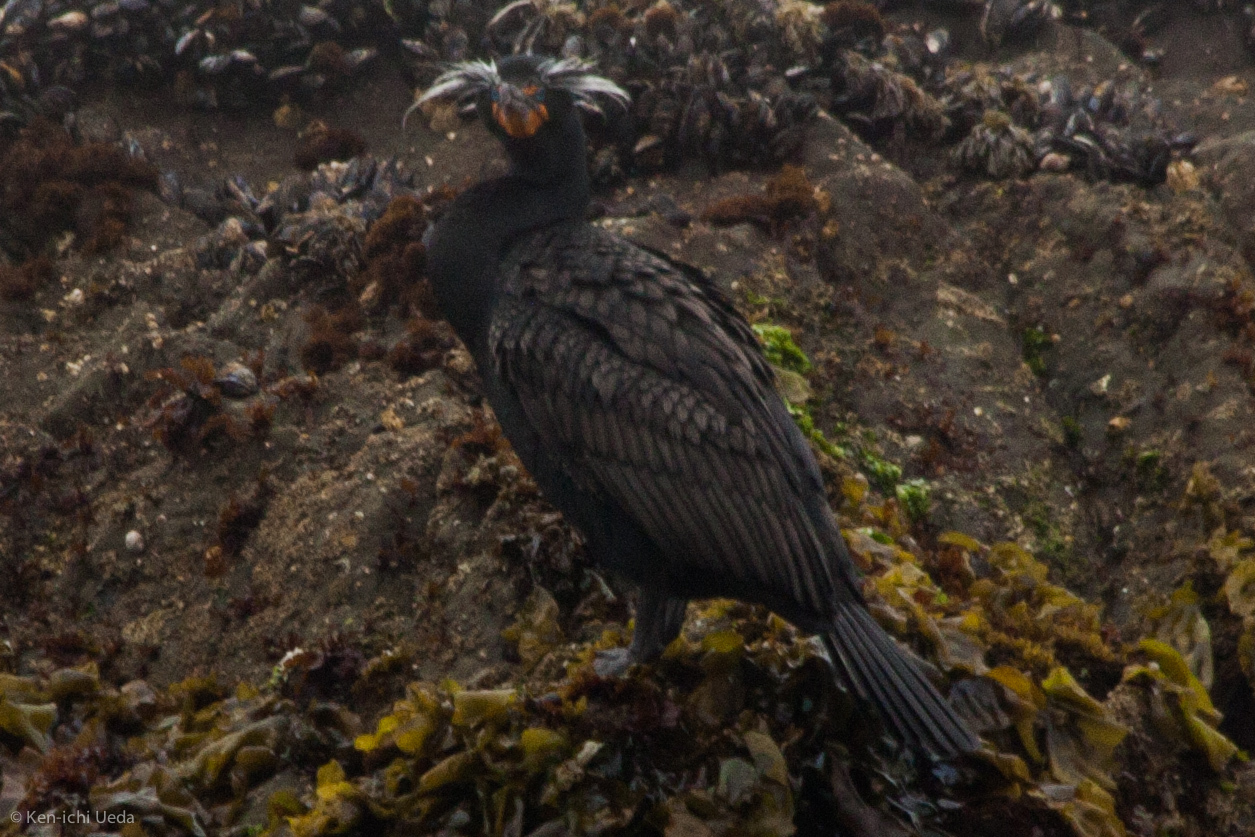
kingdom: Animalia
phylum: Chordata
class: Aves
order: Suliformes
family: Phalacrocoracidae
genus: Phalacrocorax
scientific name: Phalacrocorax auritus
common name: Double-crested cormorant
